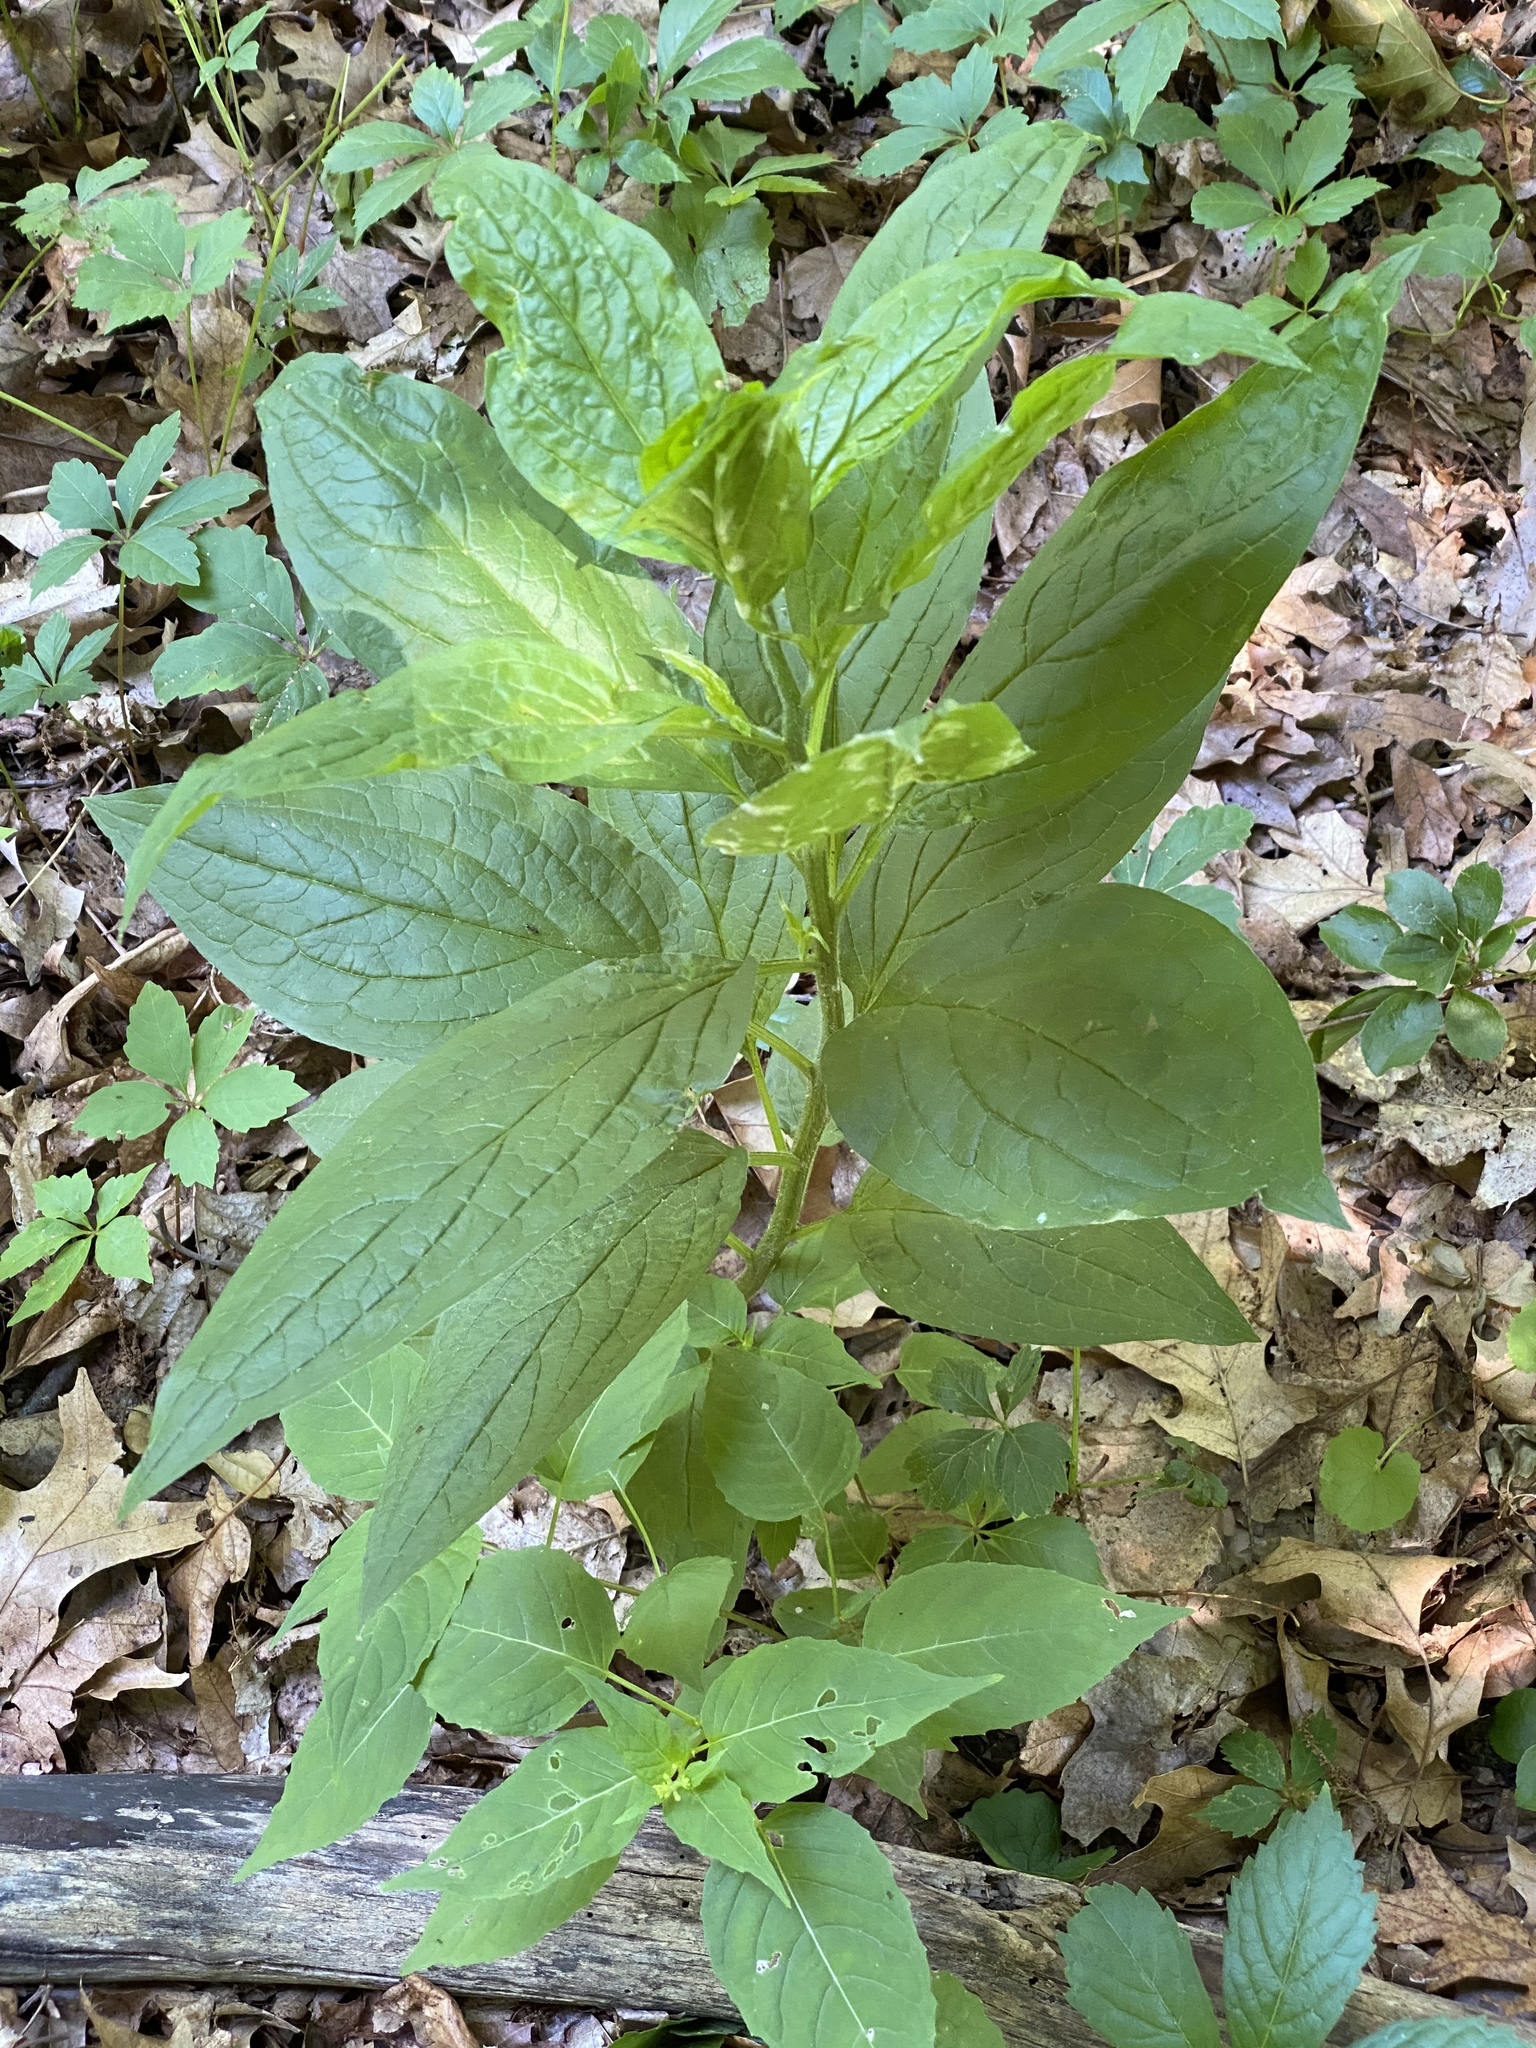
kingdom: Plantae
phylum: Tracheophyta
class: Magnoliopsida
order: Boraginales
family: Boraginaceae
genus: Hackelia
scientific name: Hackelia virginiana
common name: Beggar's-lice
